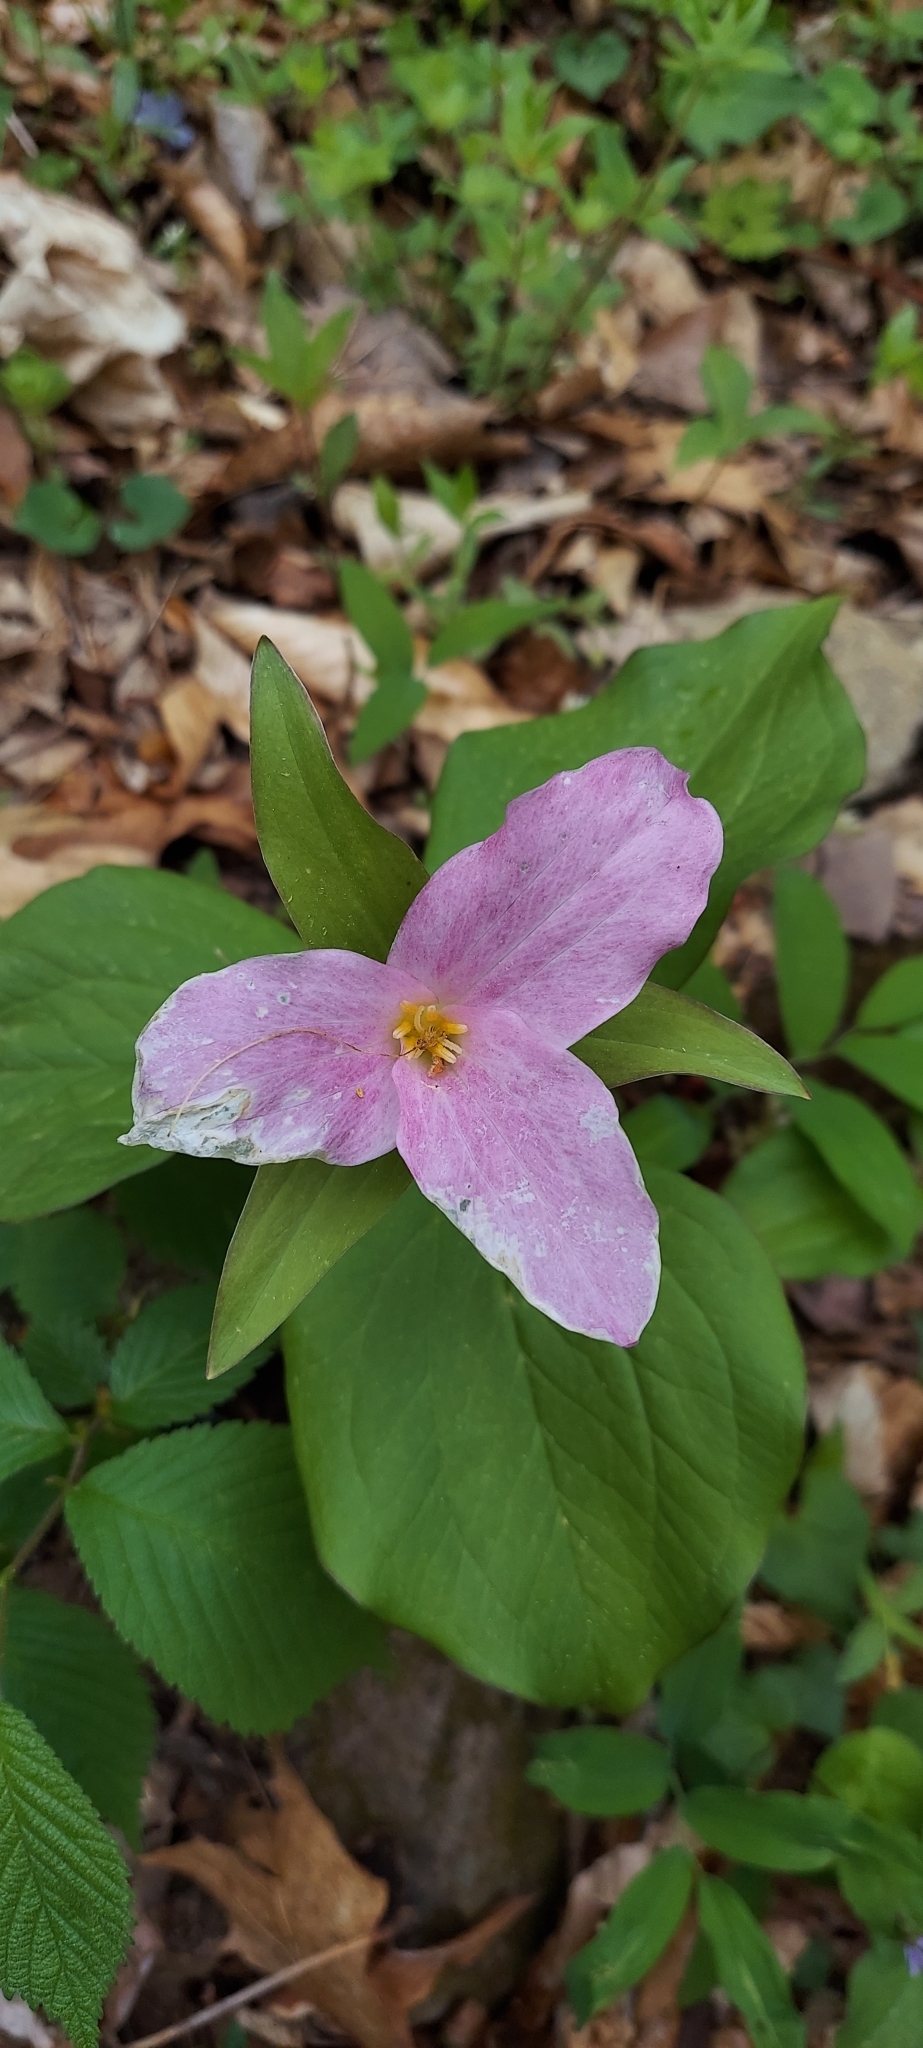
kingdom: Plantae
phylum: Tracheophyta
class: Liliopsida
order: Liliales
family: Melanthiaceae
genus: Trillium
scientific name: Trillium grandiflorum
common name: Great white trillium
